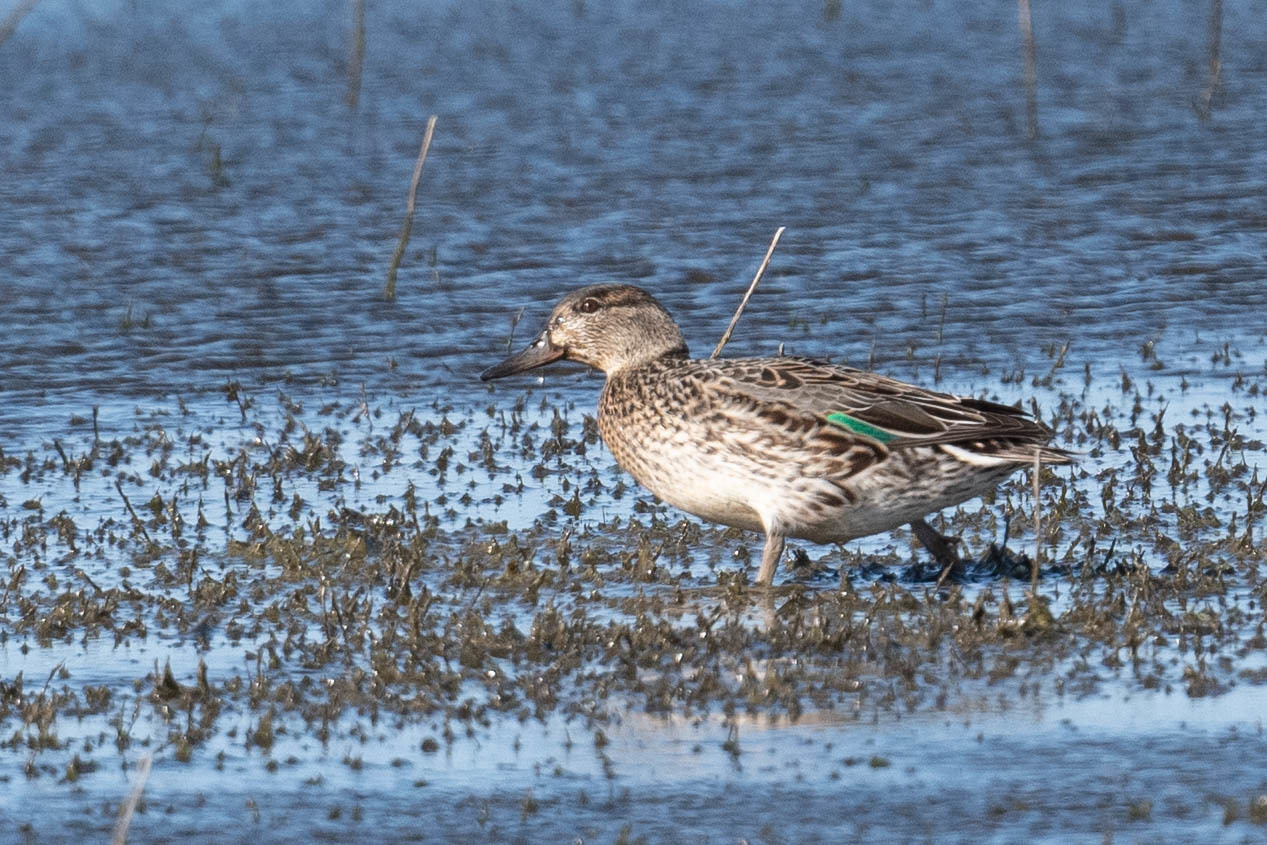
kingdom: Animalia
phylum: Chordata
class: Aves
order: Anseriformes
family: Anatidae
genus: Anas
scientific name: Anas crecca
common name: Eurasian teal
